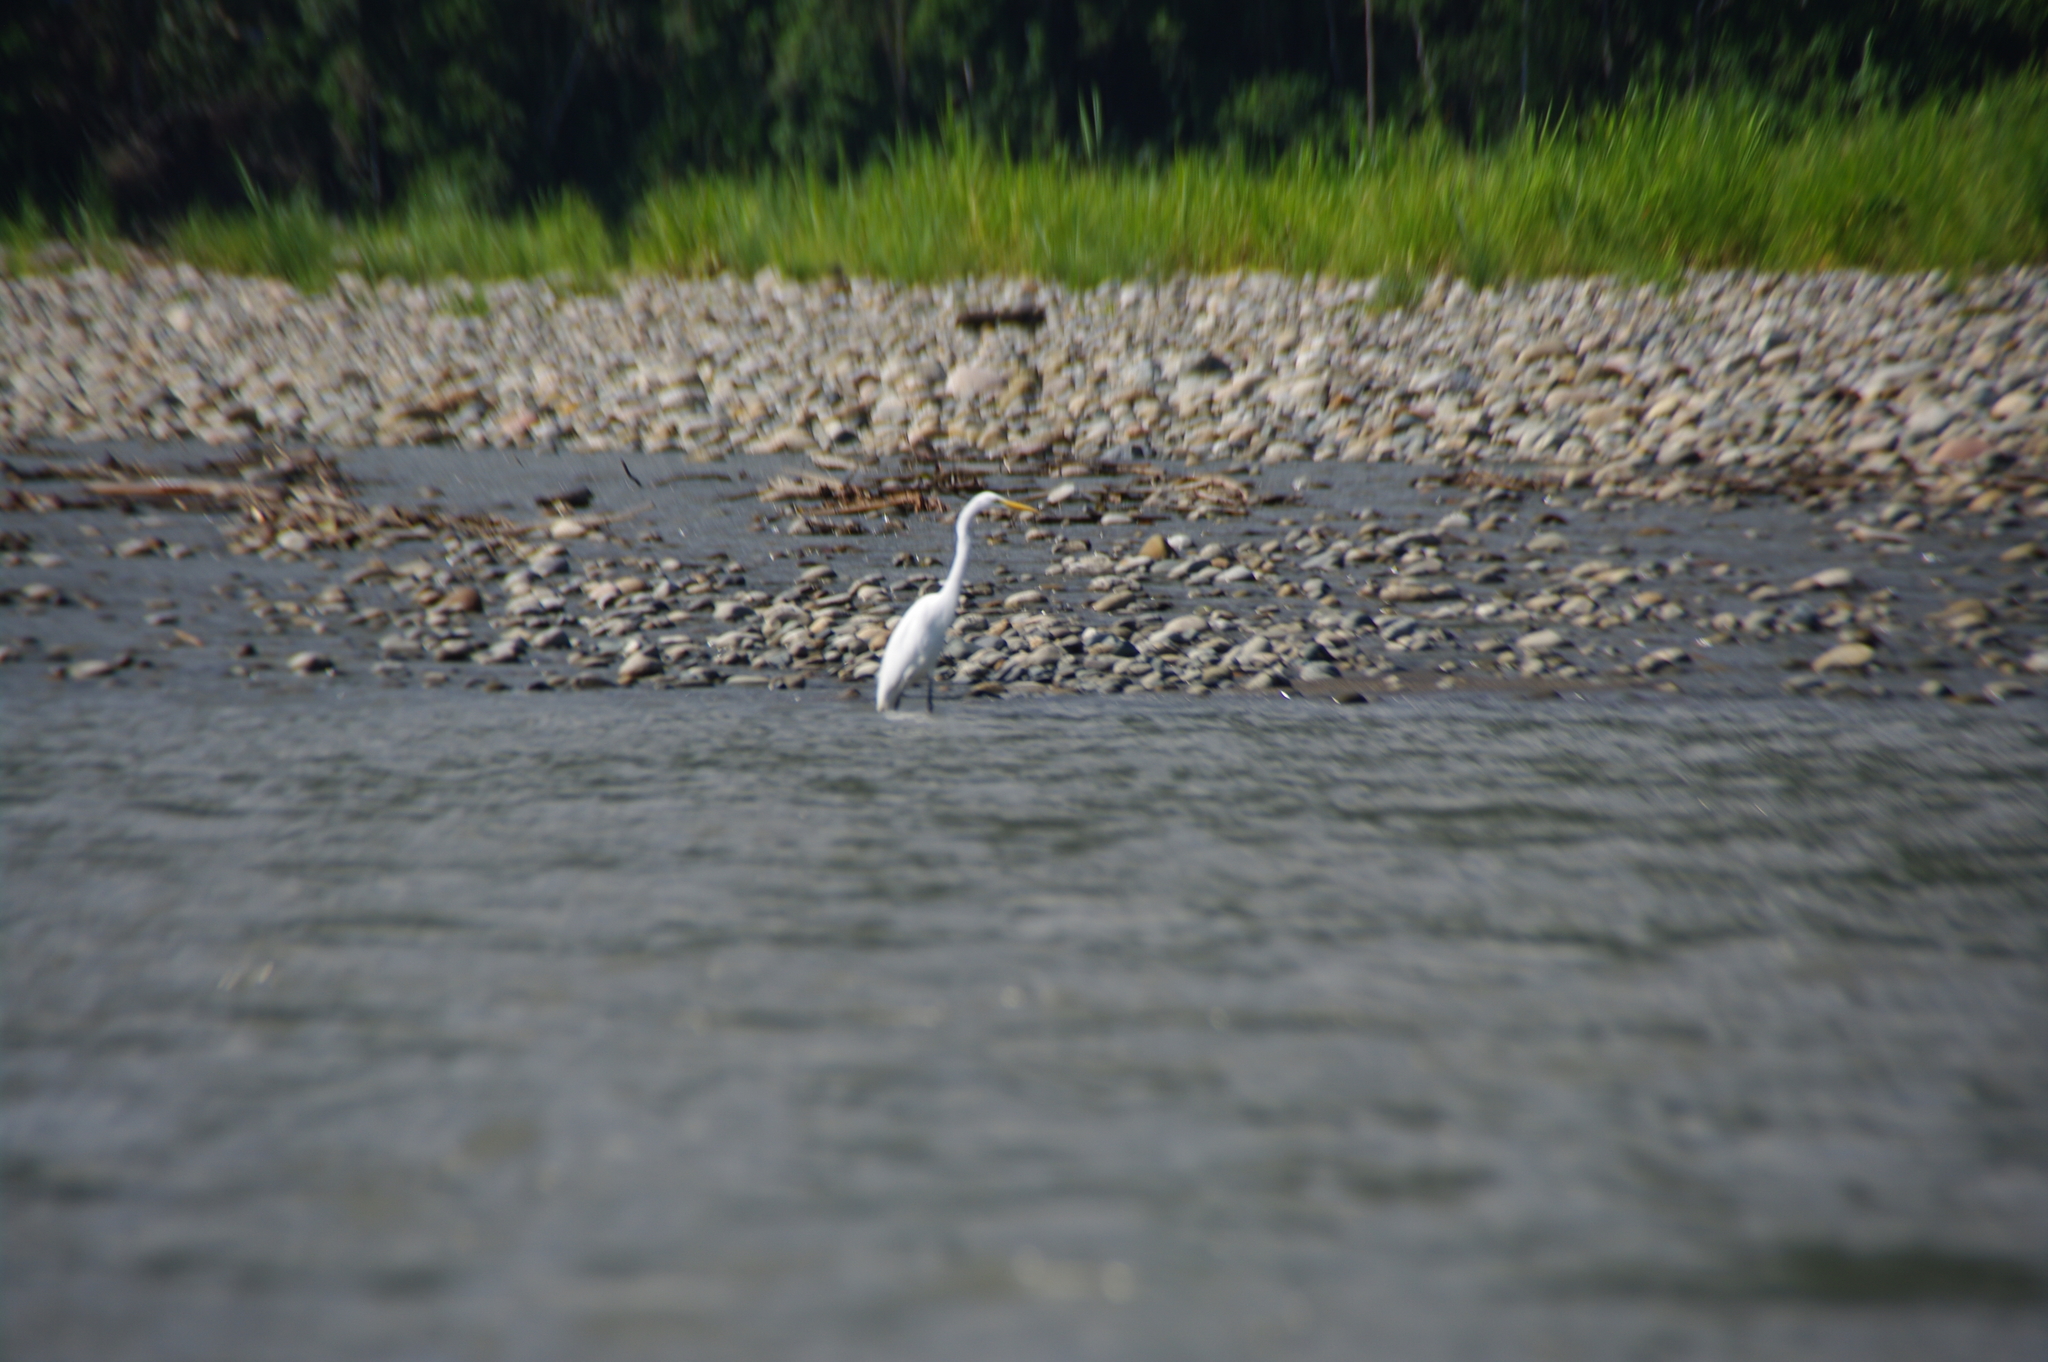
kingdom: Animalia
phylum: Chordata
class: Aves
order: Pelecaniformes
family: Ardeidae
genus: Ardea
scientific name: Ardea alba
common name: Great egret
